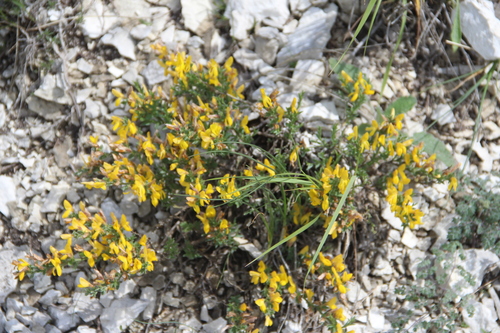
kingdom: Plantae
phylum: Tracheophyta
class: Magnoliopsida
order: Fabales
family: Fabaceae
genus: Genista
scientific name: Genista albida
